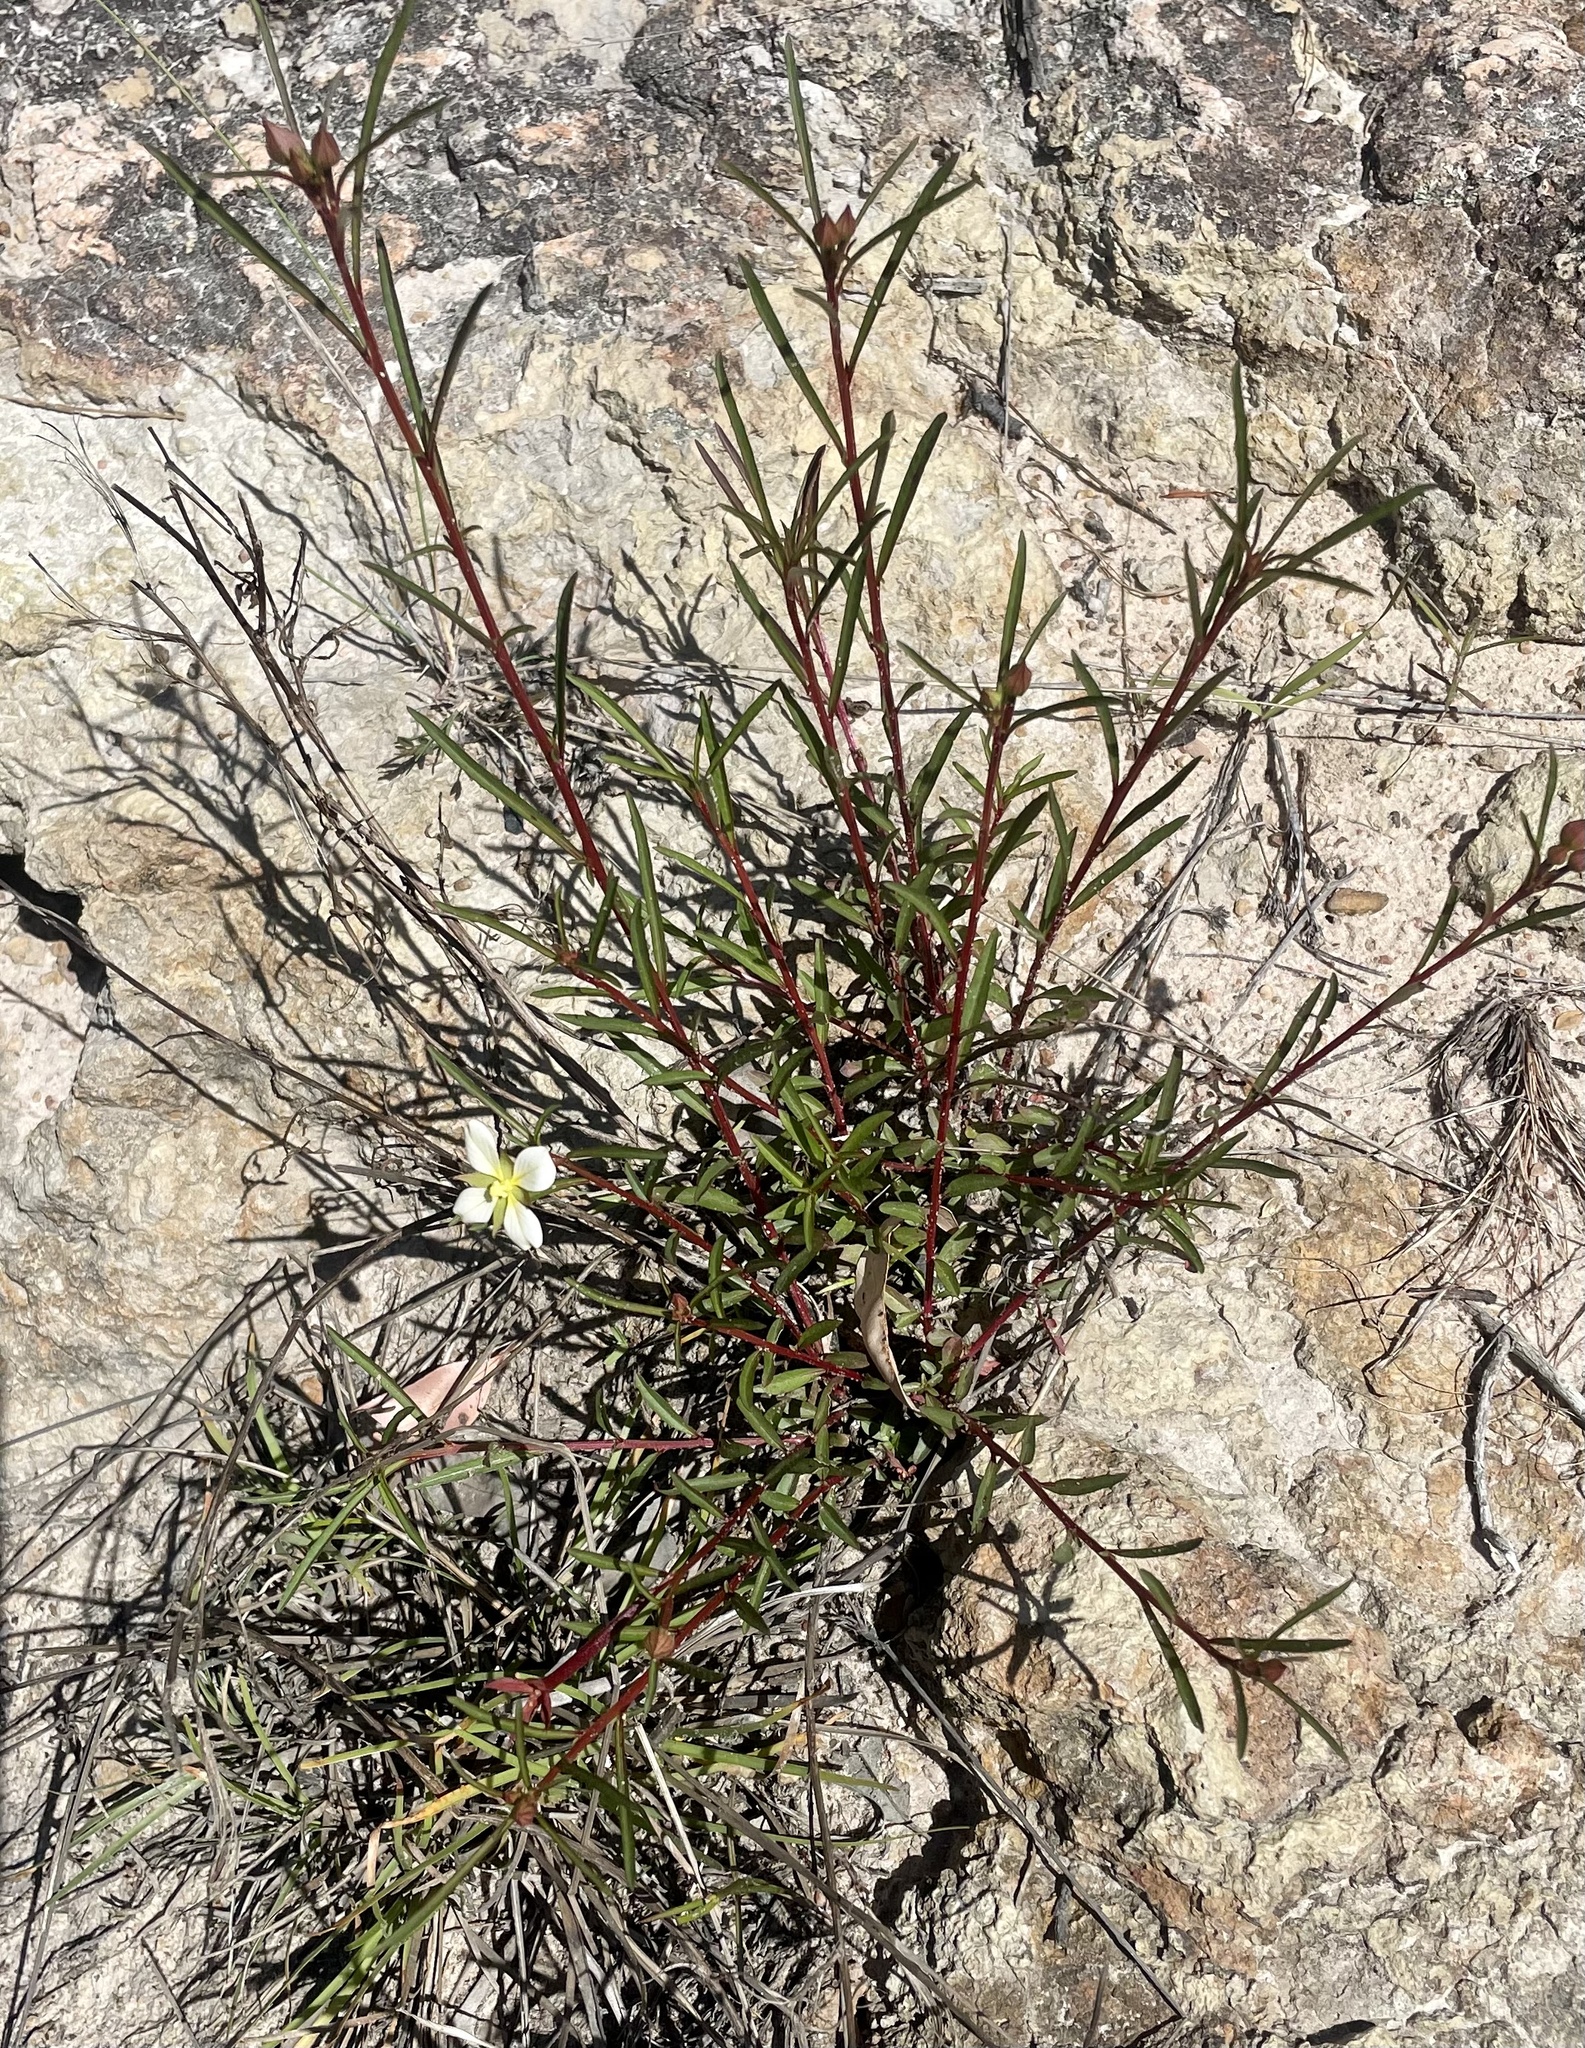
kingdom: Plantae
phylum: Tracheophyta
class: Magnoliopsida
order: Myrtales
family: Onagraceae
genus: Ludwigia
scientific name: Ludwigia octovalvis
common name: Water-primrose
